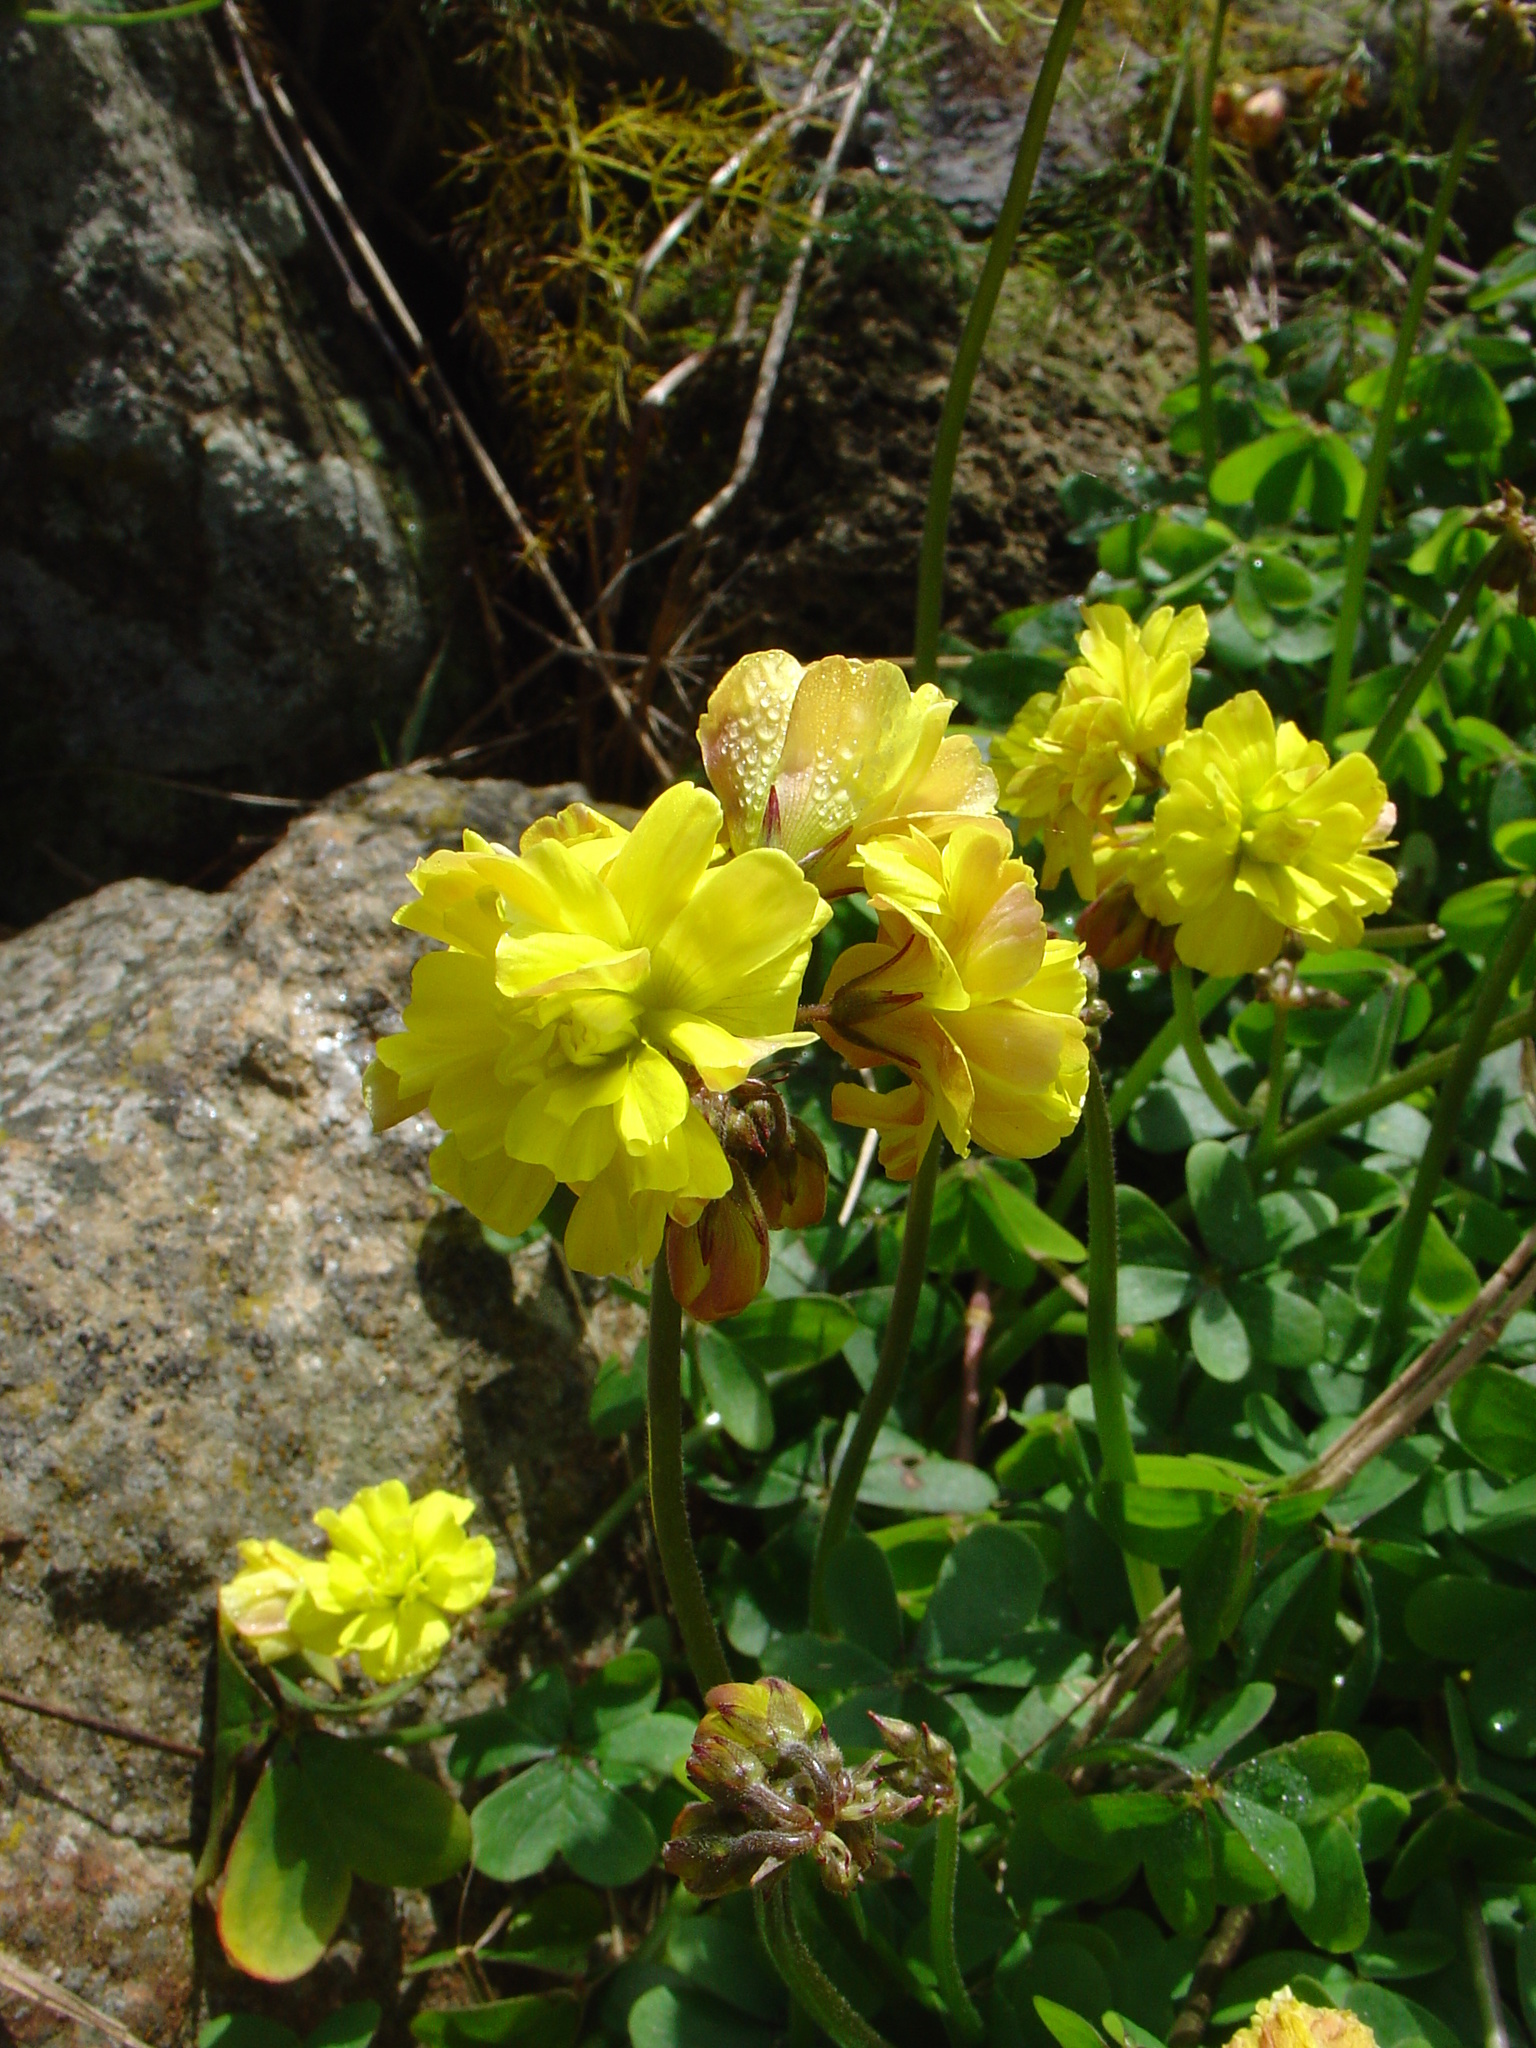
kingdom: Plantae
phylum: Tracheophyta
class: Magnoliopsida
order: Oxalidales
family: Oxalidaceae
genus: Oxalis
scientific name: Oxalis pes-caprae
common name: Bermuda-buttercup
